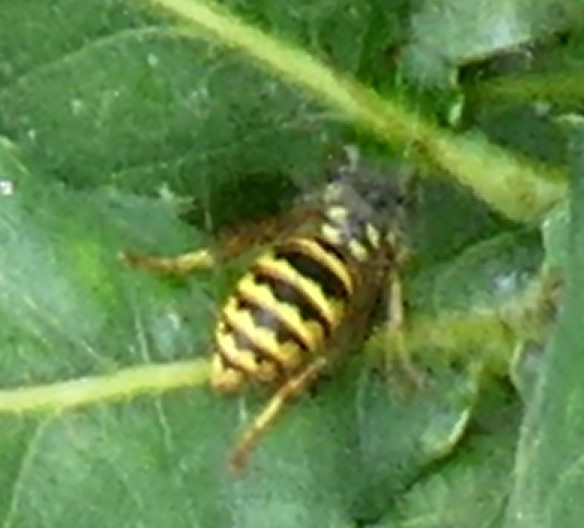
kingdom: Animalia
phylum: Arthropoda
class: Insecta
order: Hymenoptera
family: Vespidae
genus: Vespula
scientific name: Vespula vulgaris
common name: Common wasp
